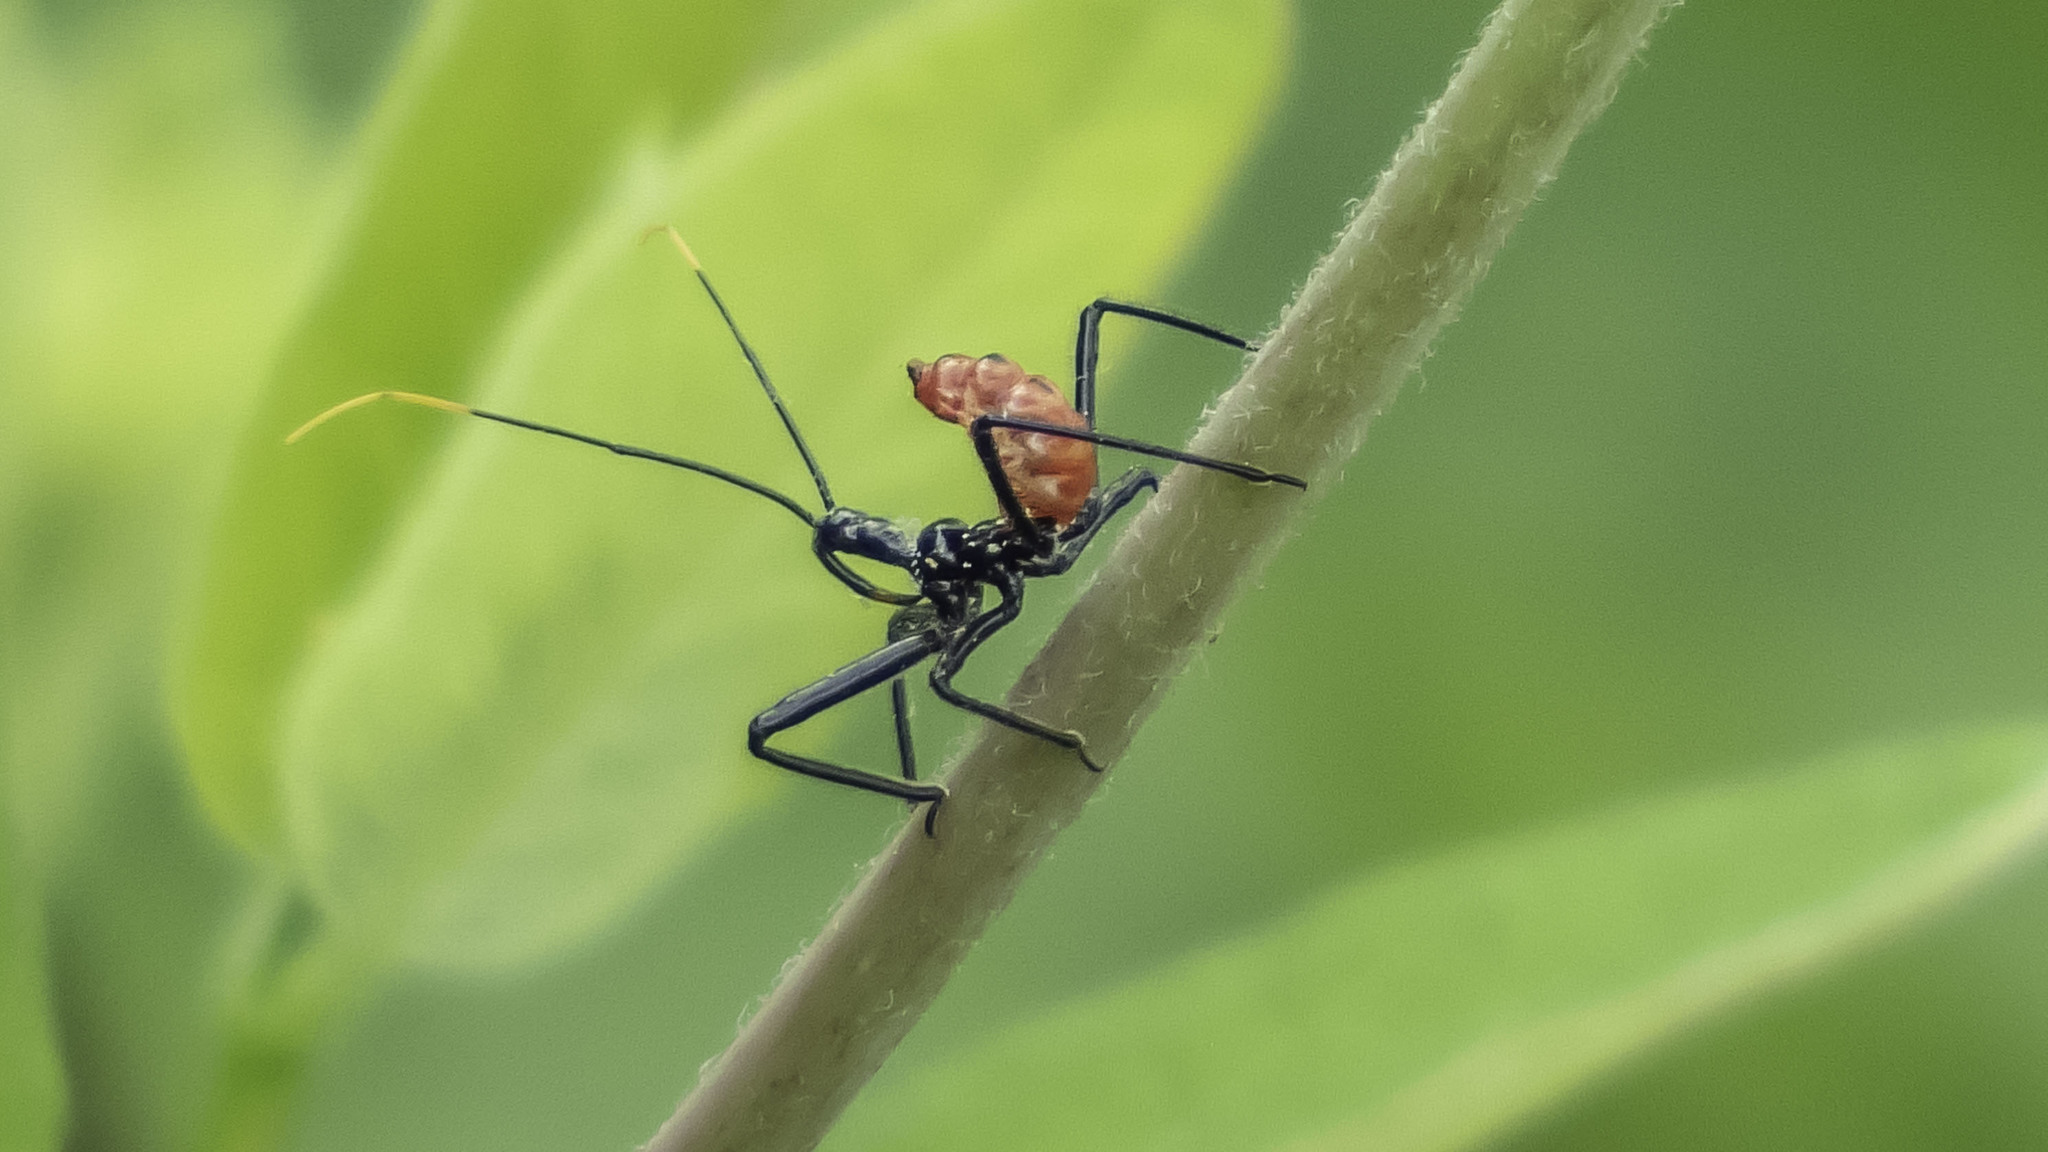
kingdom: Animalia
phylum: Arthropoda
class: Insecta
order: Hemiptera
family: Reduviidae
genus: Arilus
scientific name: Arilus cristatus
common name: North american wheel bug
